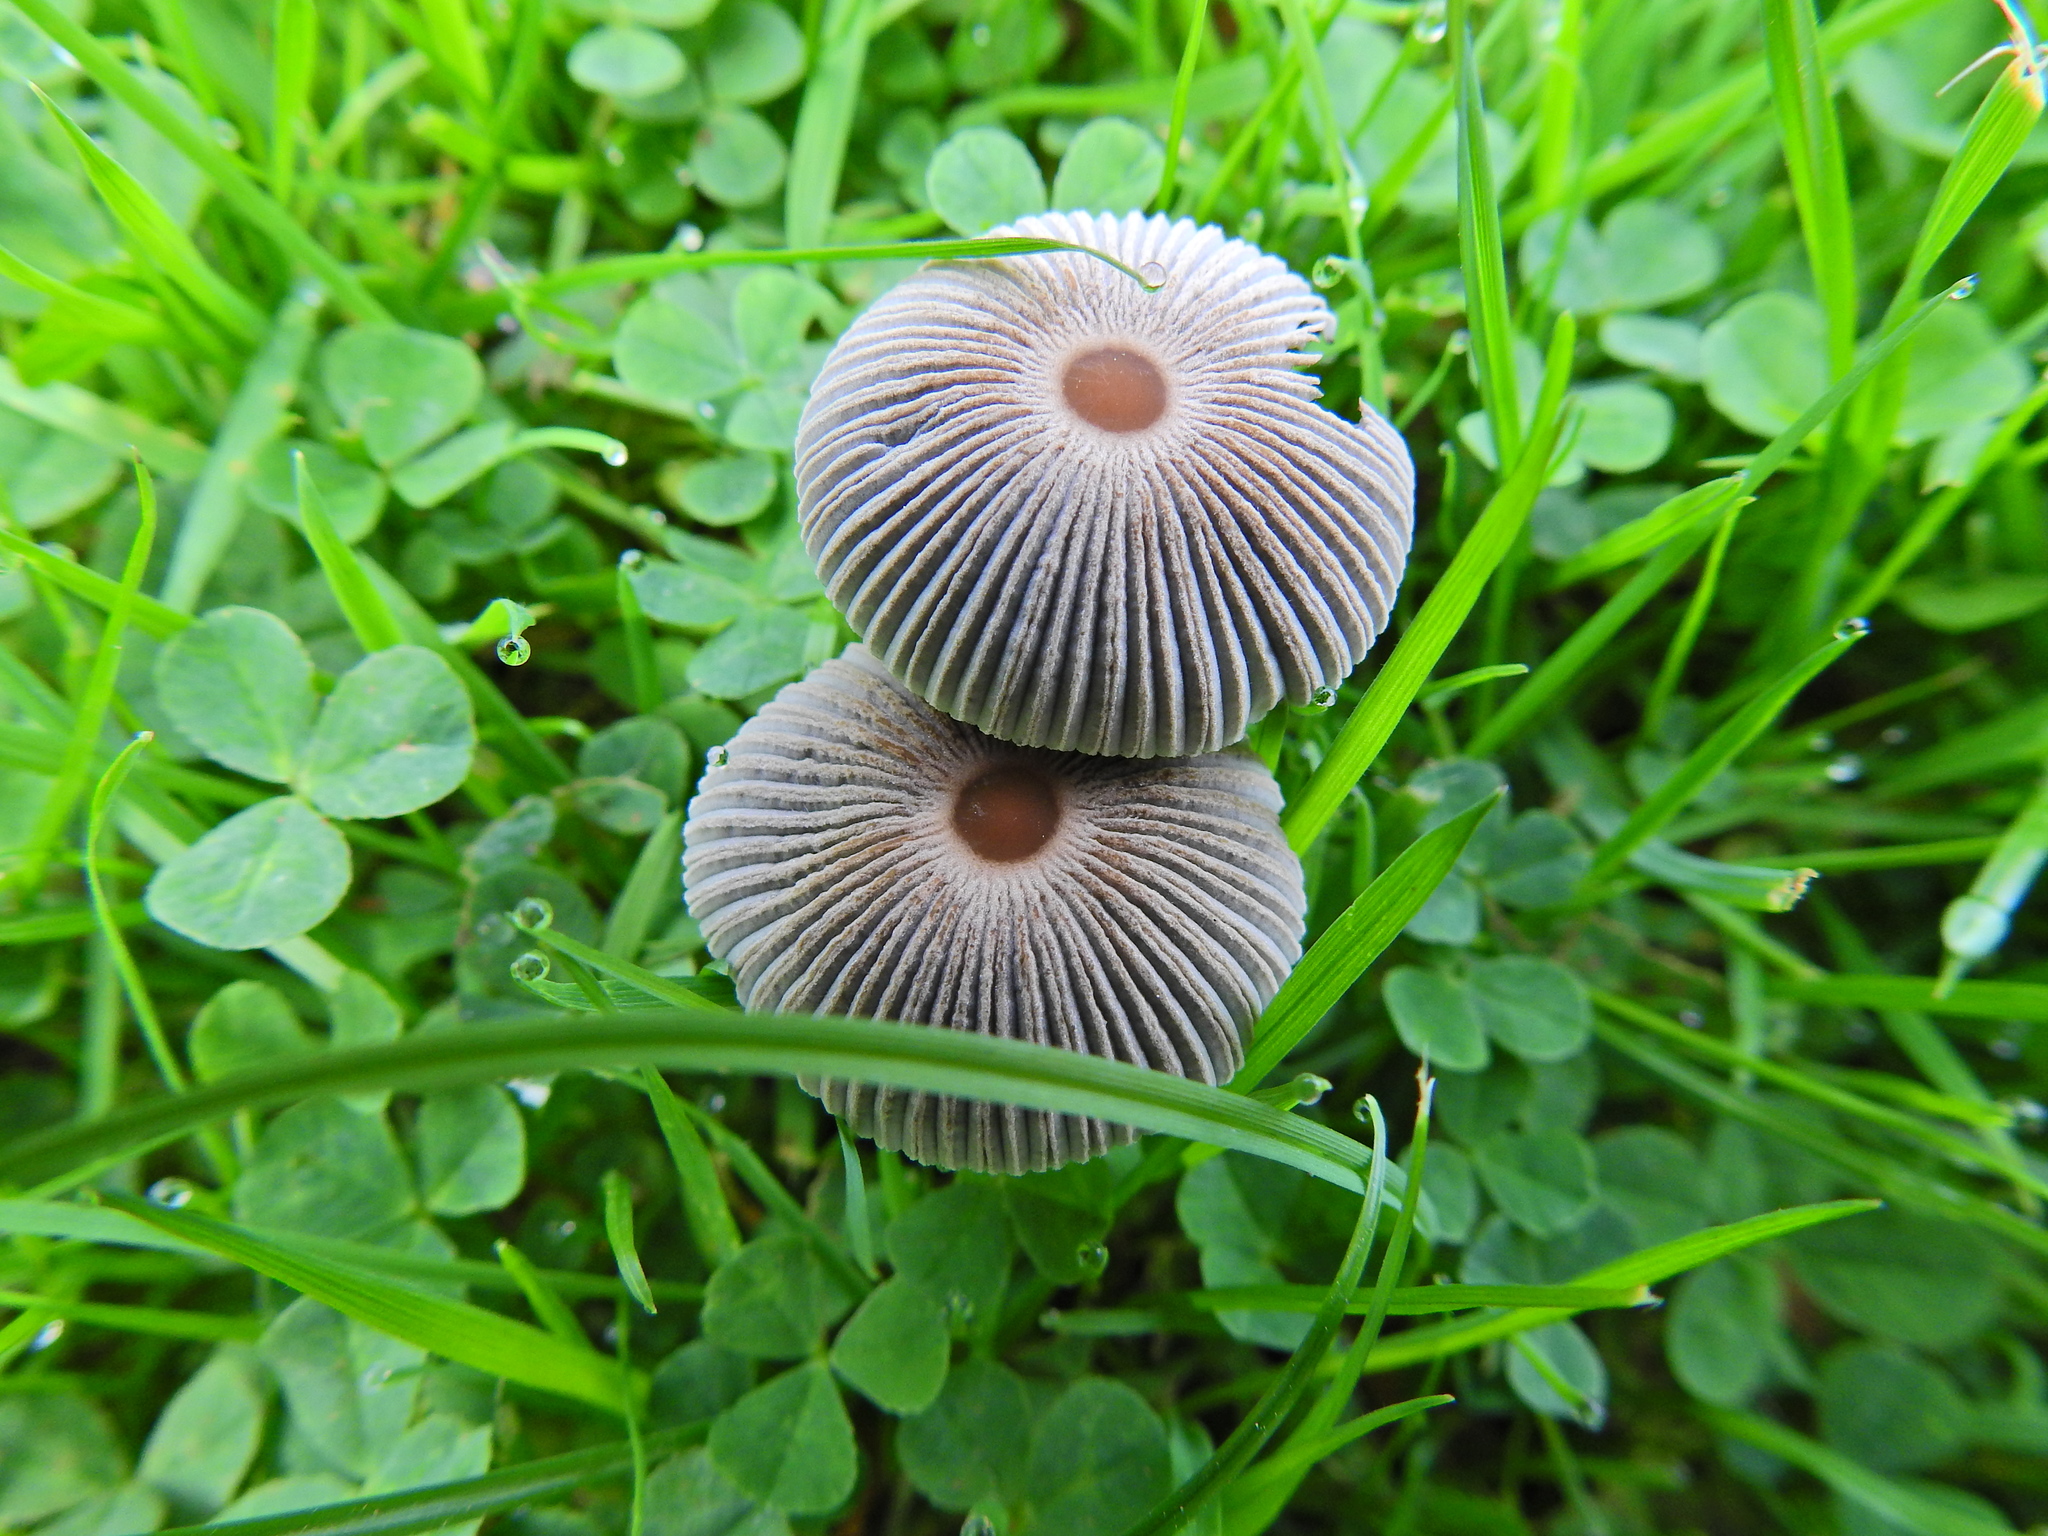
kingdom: Fungi
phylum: Basidiomycota
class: Agaricomycetes
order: Agaricales
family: Psathyrellaceae
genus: Parasola
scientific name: Parasola plicatilis
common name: Pleated inkcap
